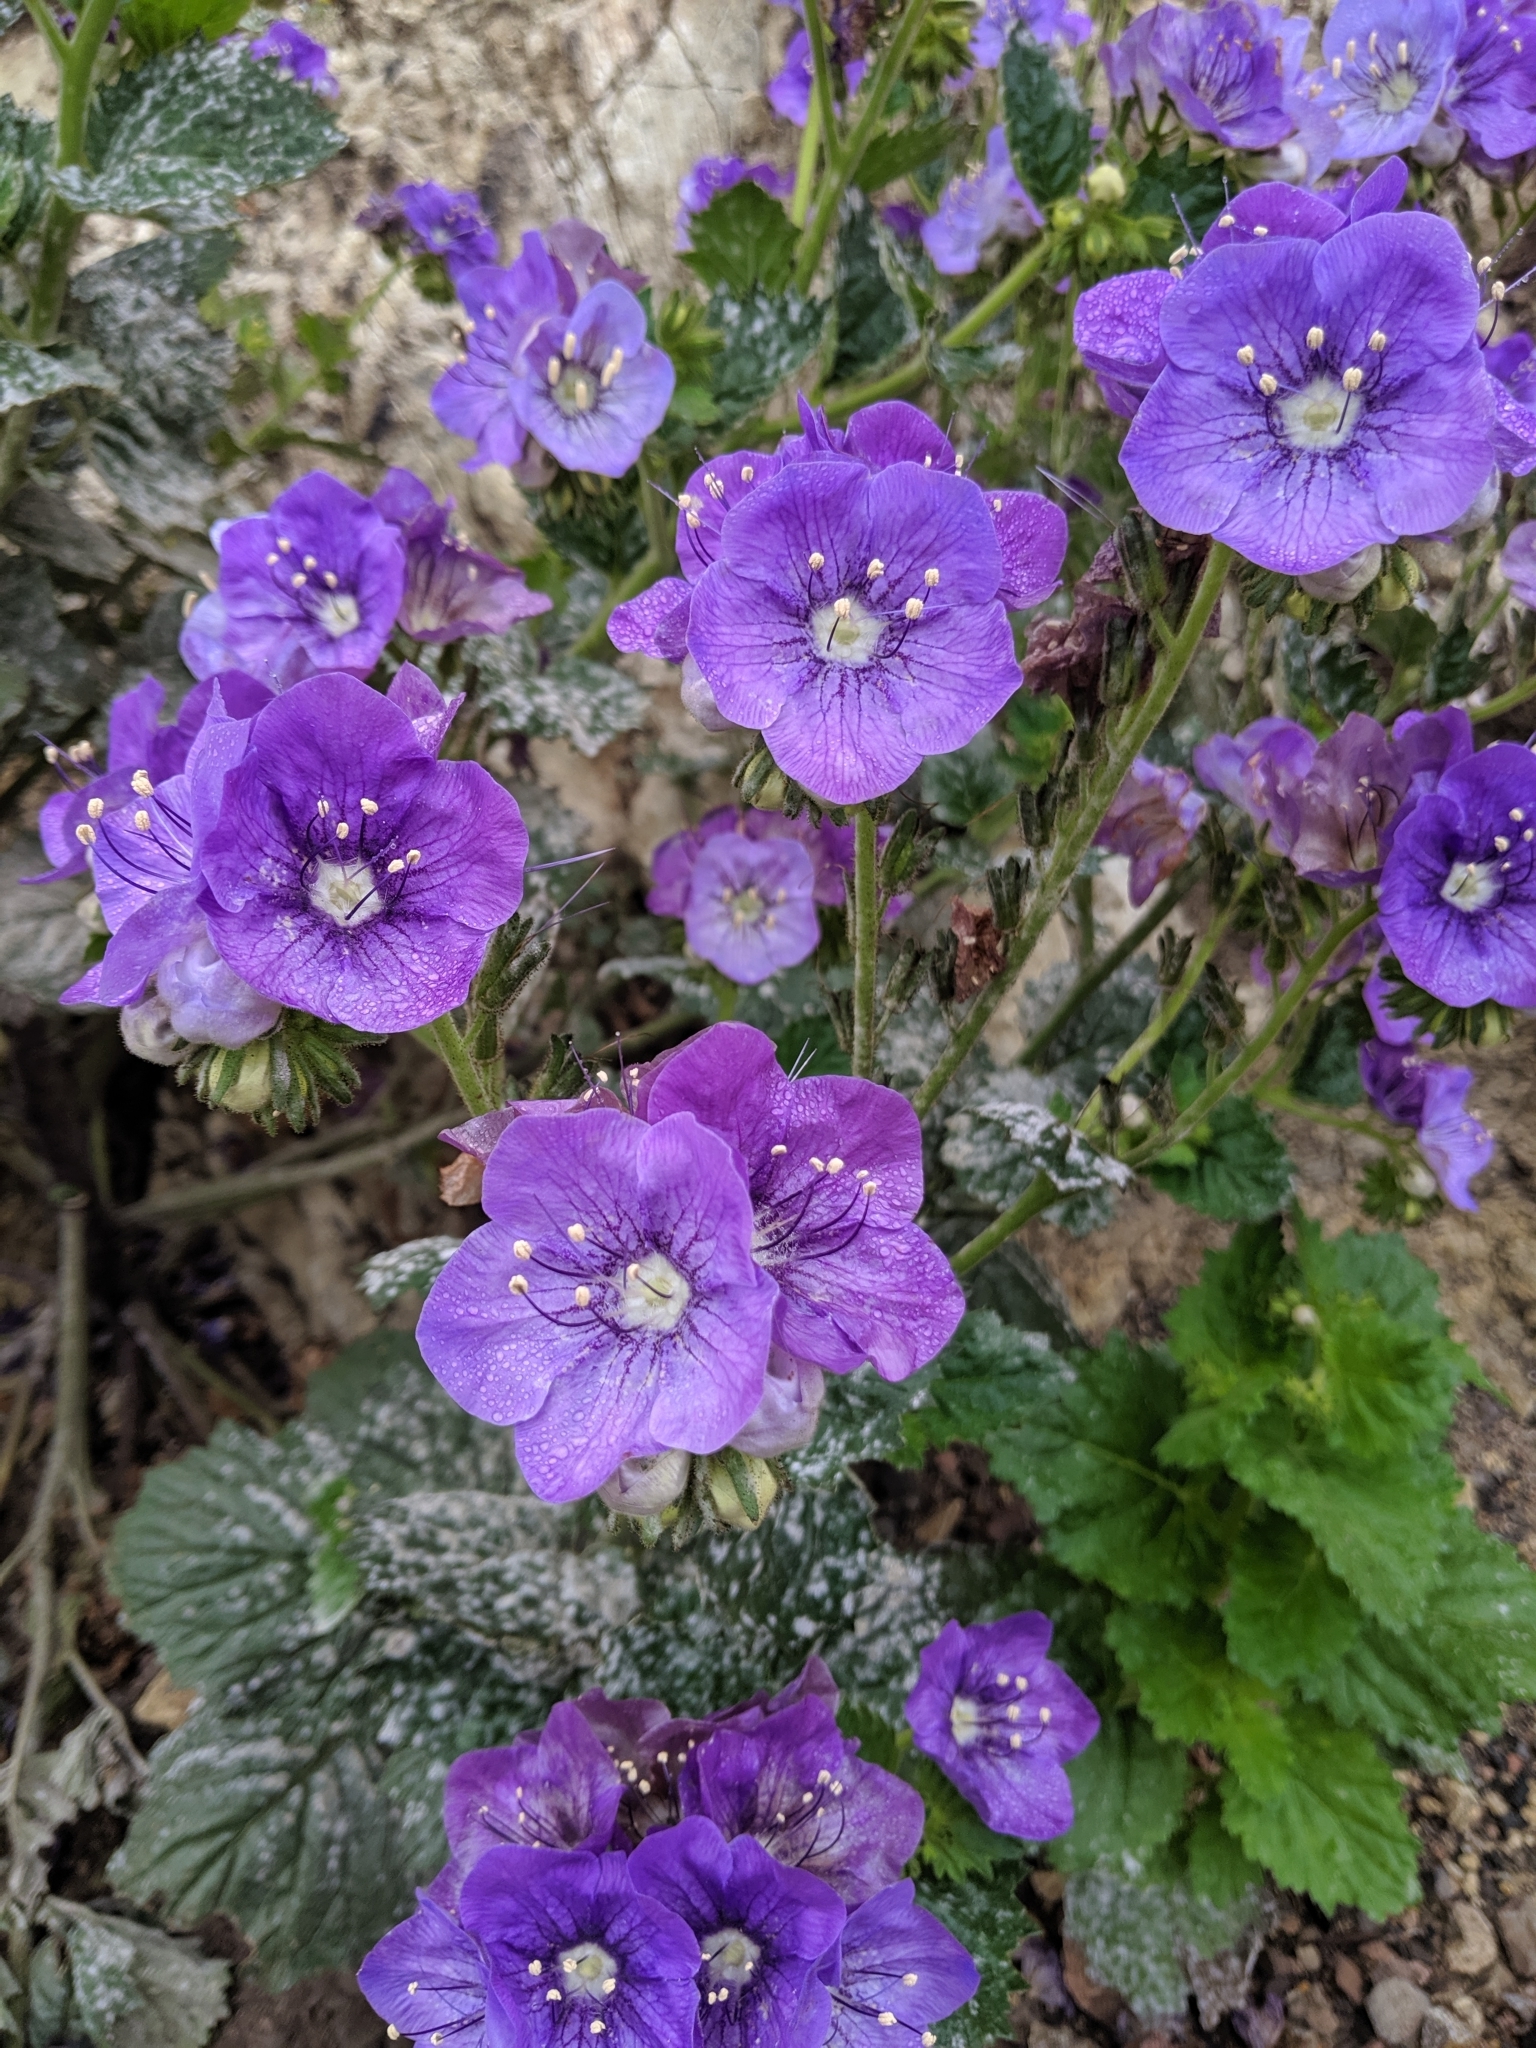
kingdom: Plantae
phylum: Tracheophyta
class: Magnoliopsida
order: Boraginales
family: Hydrophyllaceae
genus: Phacelia
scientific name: Phacelia grandiflora
